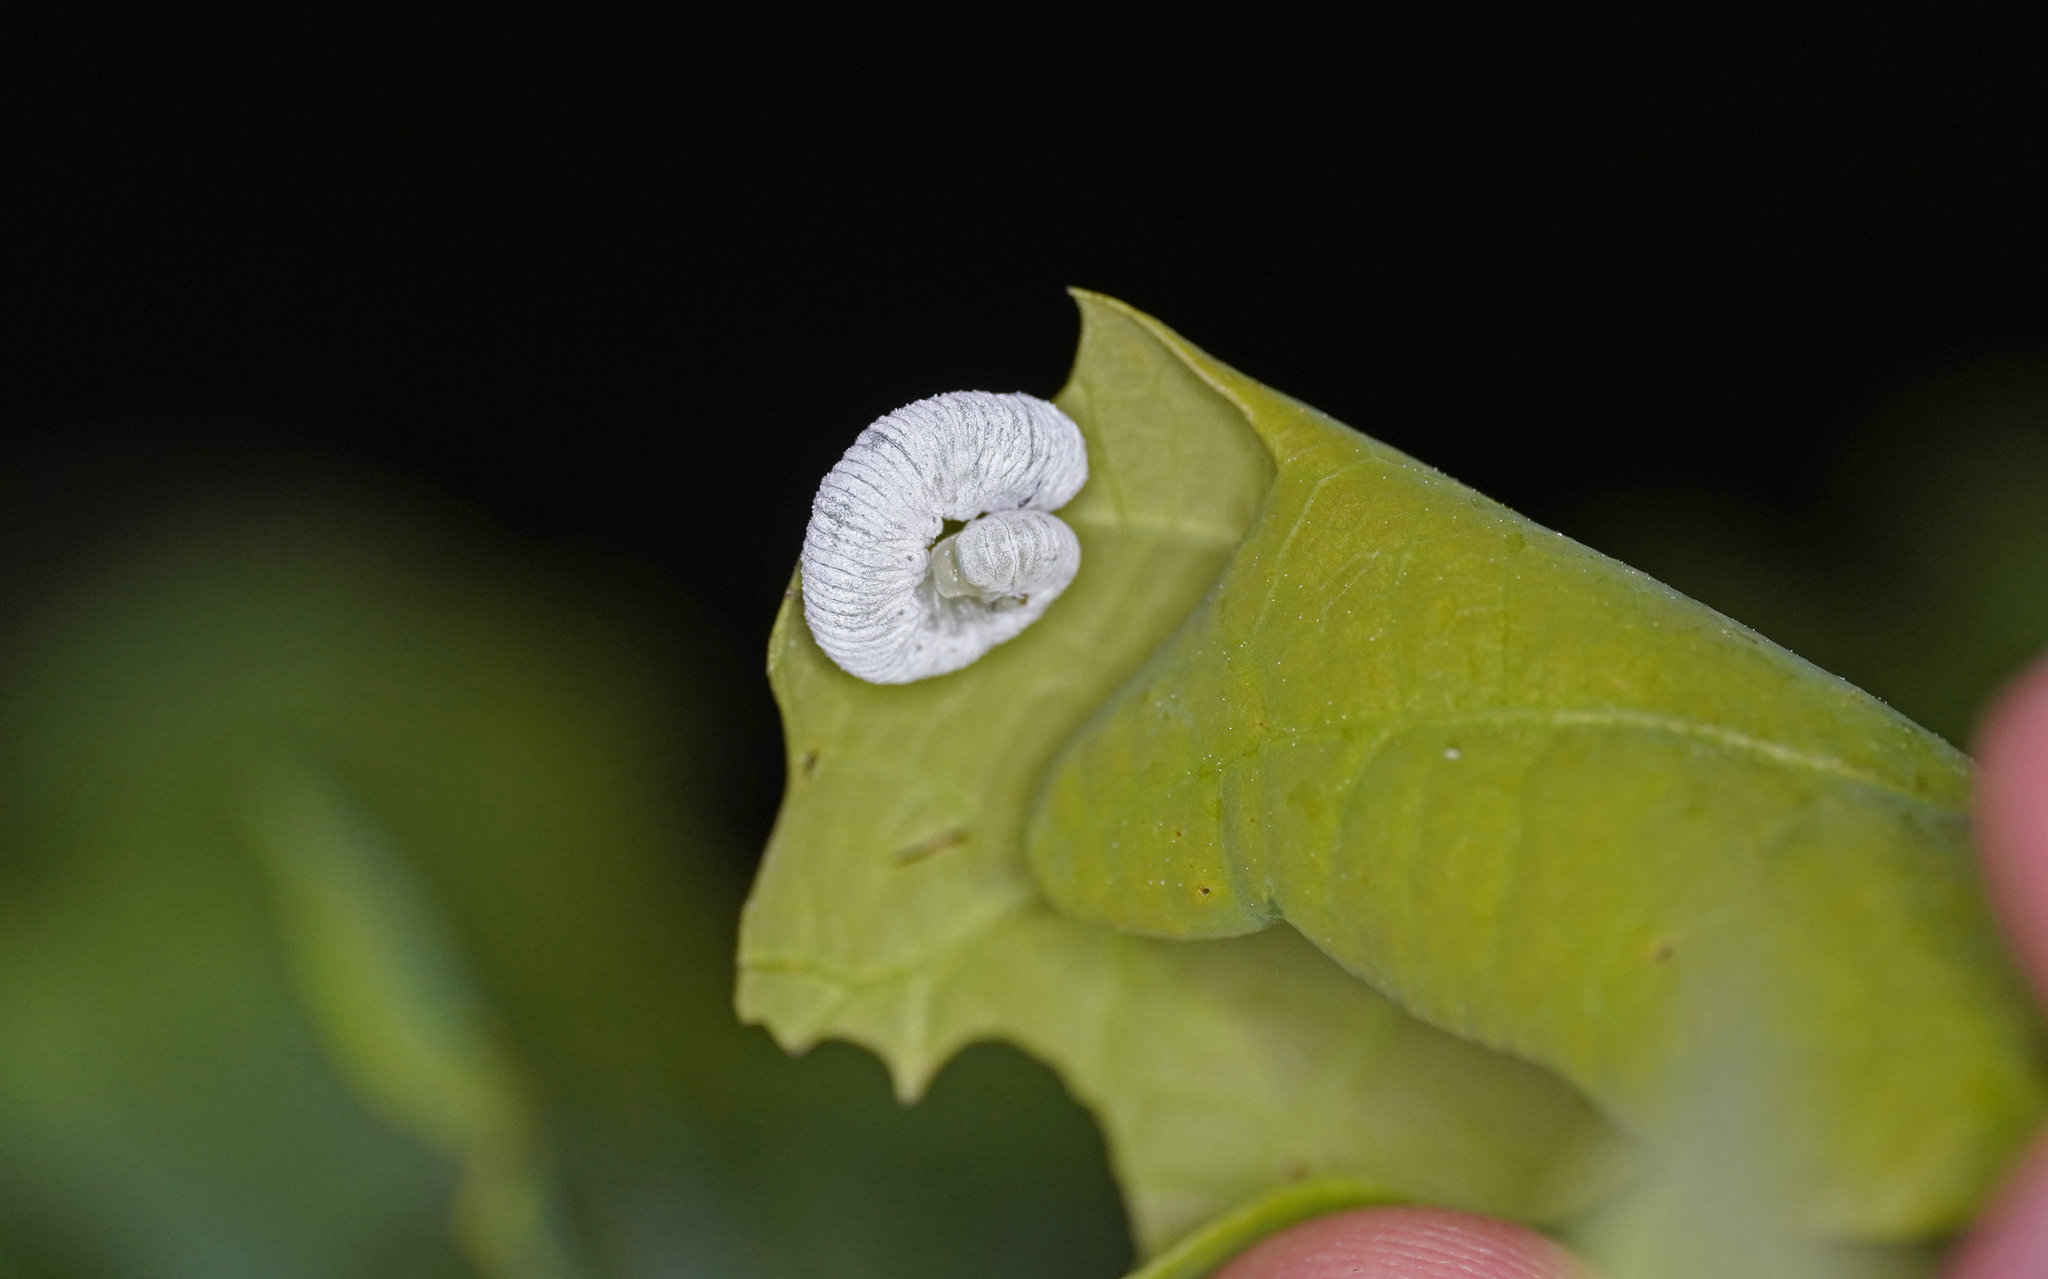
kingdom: Animalia
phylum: Arthropoda
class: Insecta
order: Hymenoptera
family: Tenthredinidae
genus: Apethymus
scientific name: Apethymus filiformis
